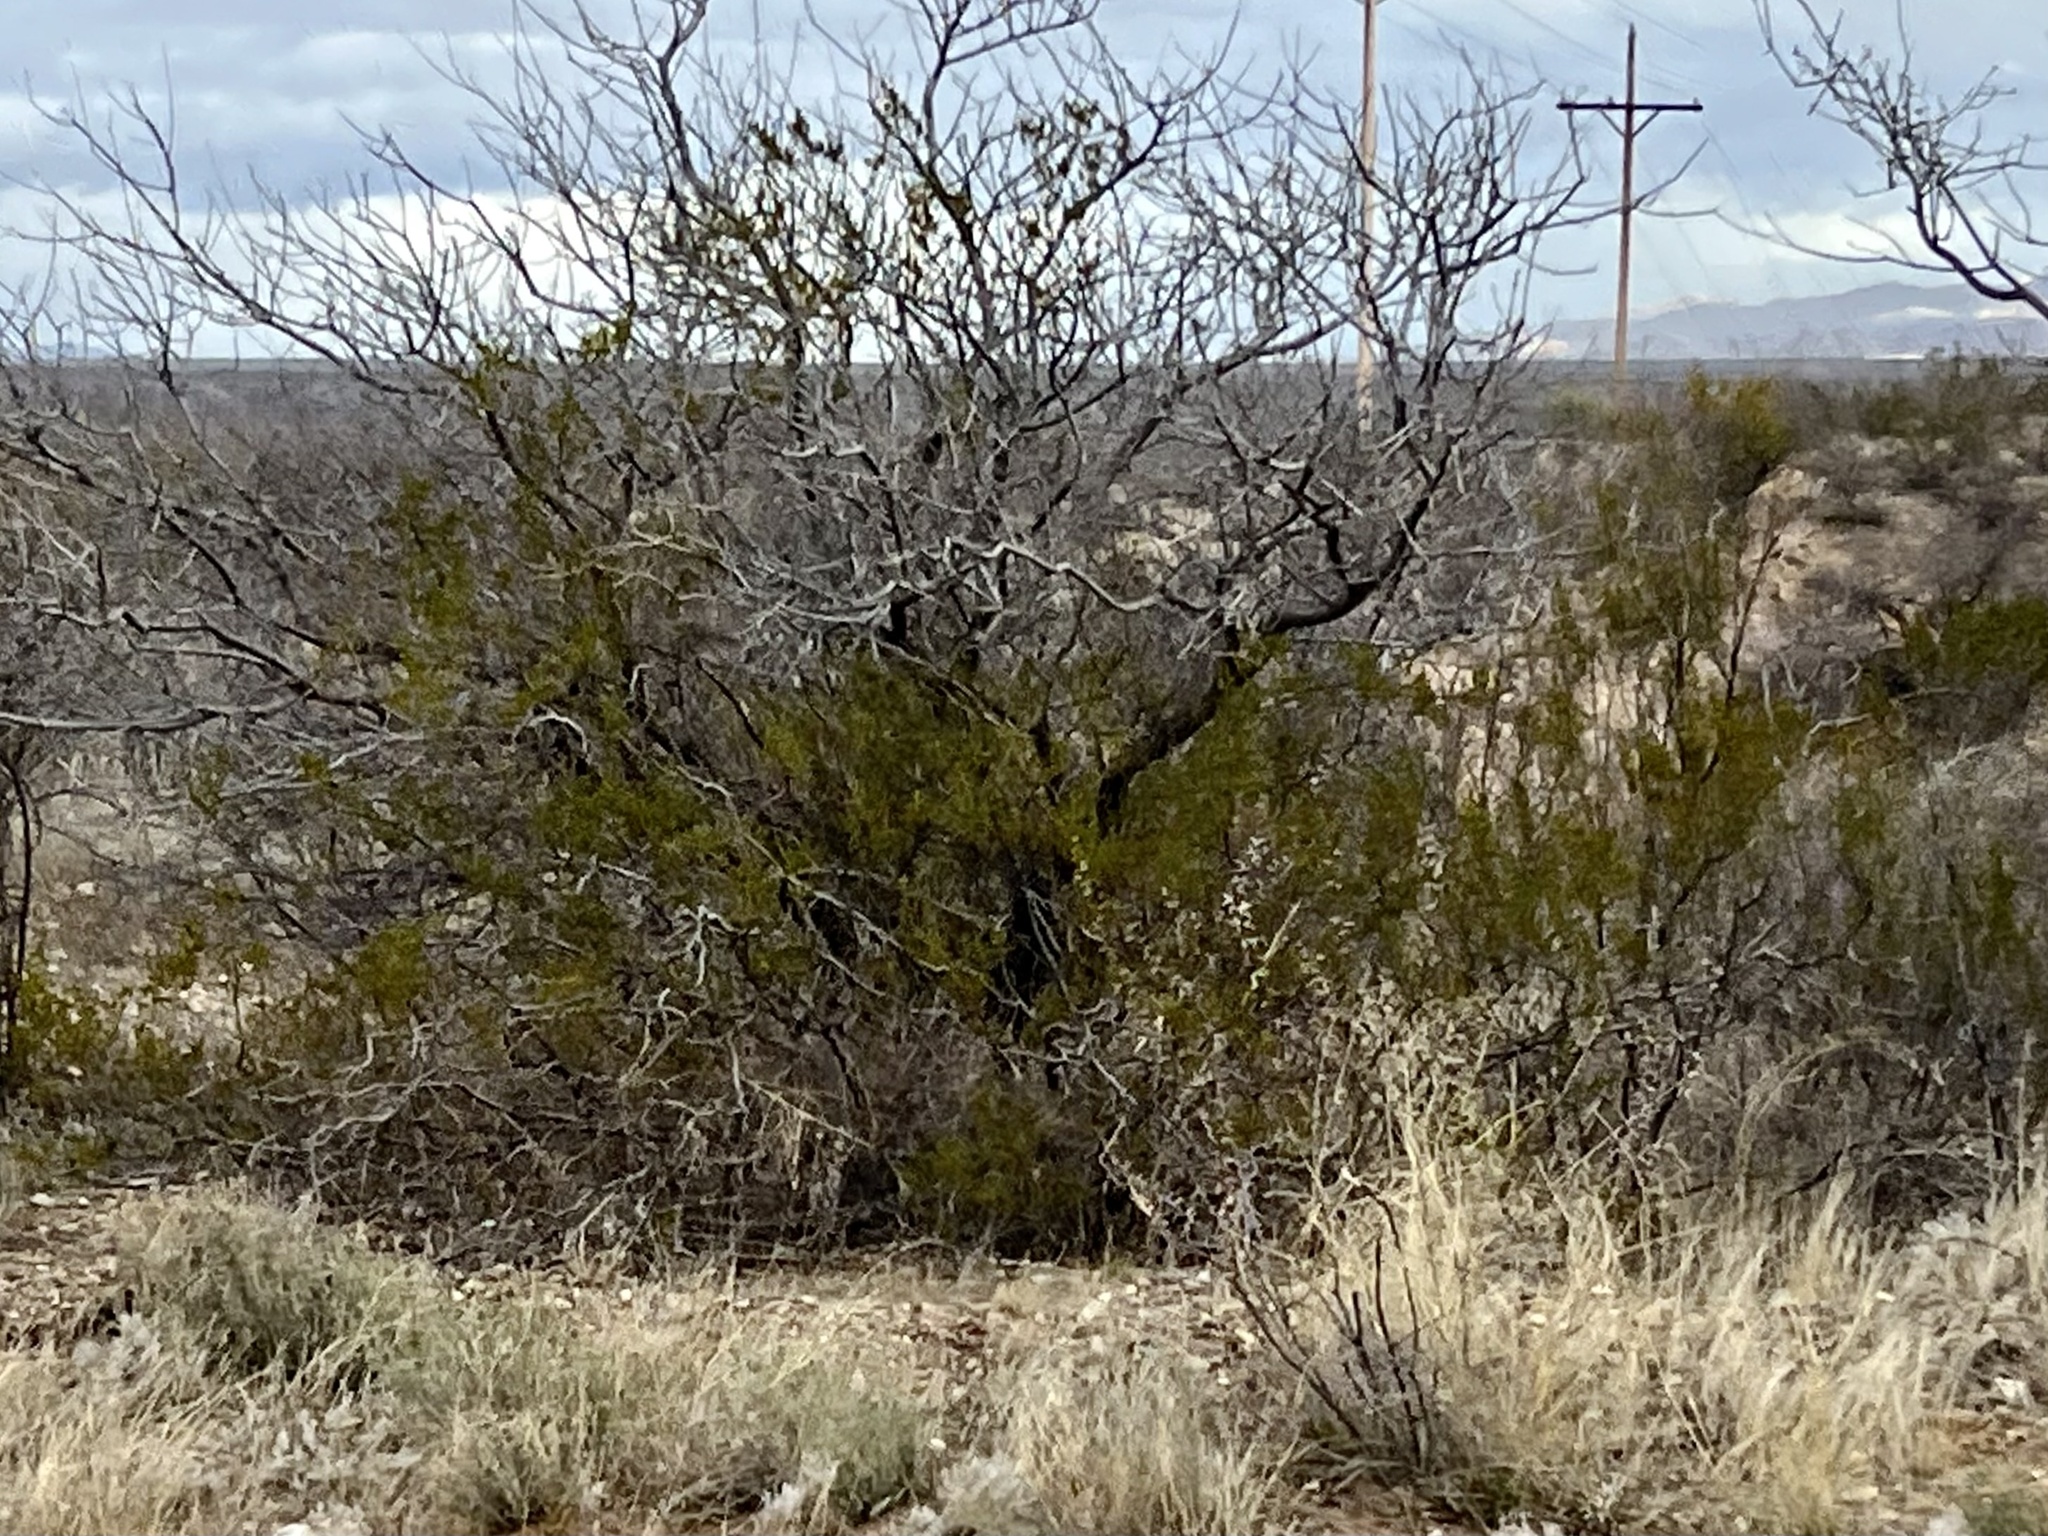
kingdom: Plantae
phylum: Tracheophyta
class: Magnoliopsida
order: Zygophyllales
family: Zygophyllaceae
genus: Larrea
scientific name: Larrea tridentata
